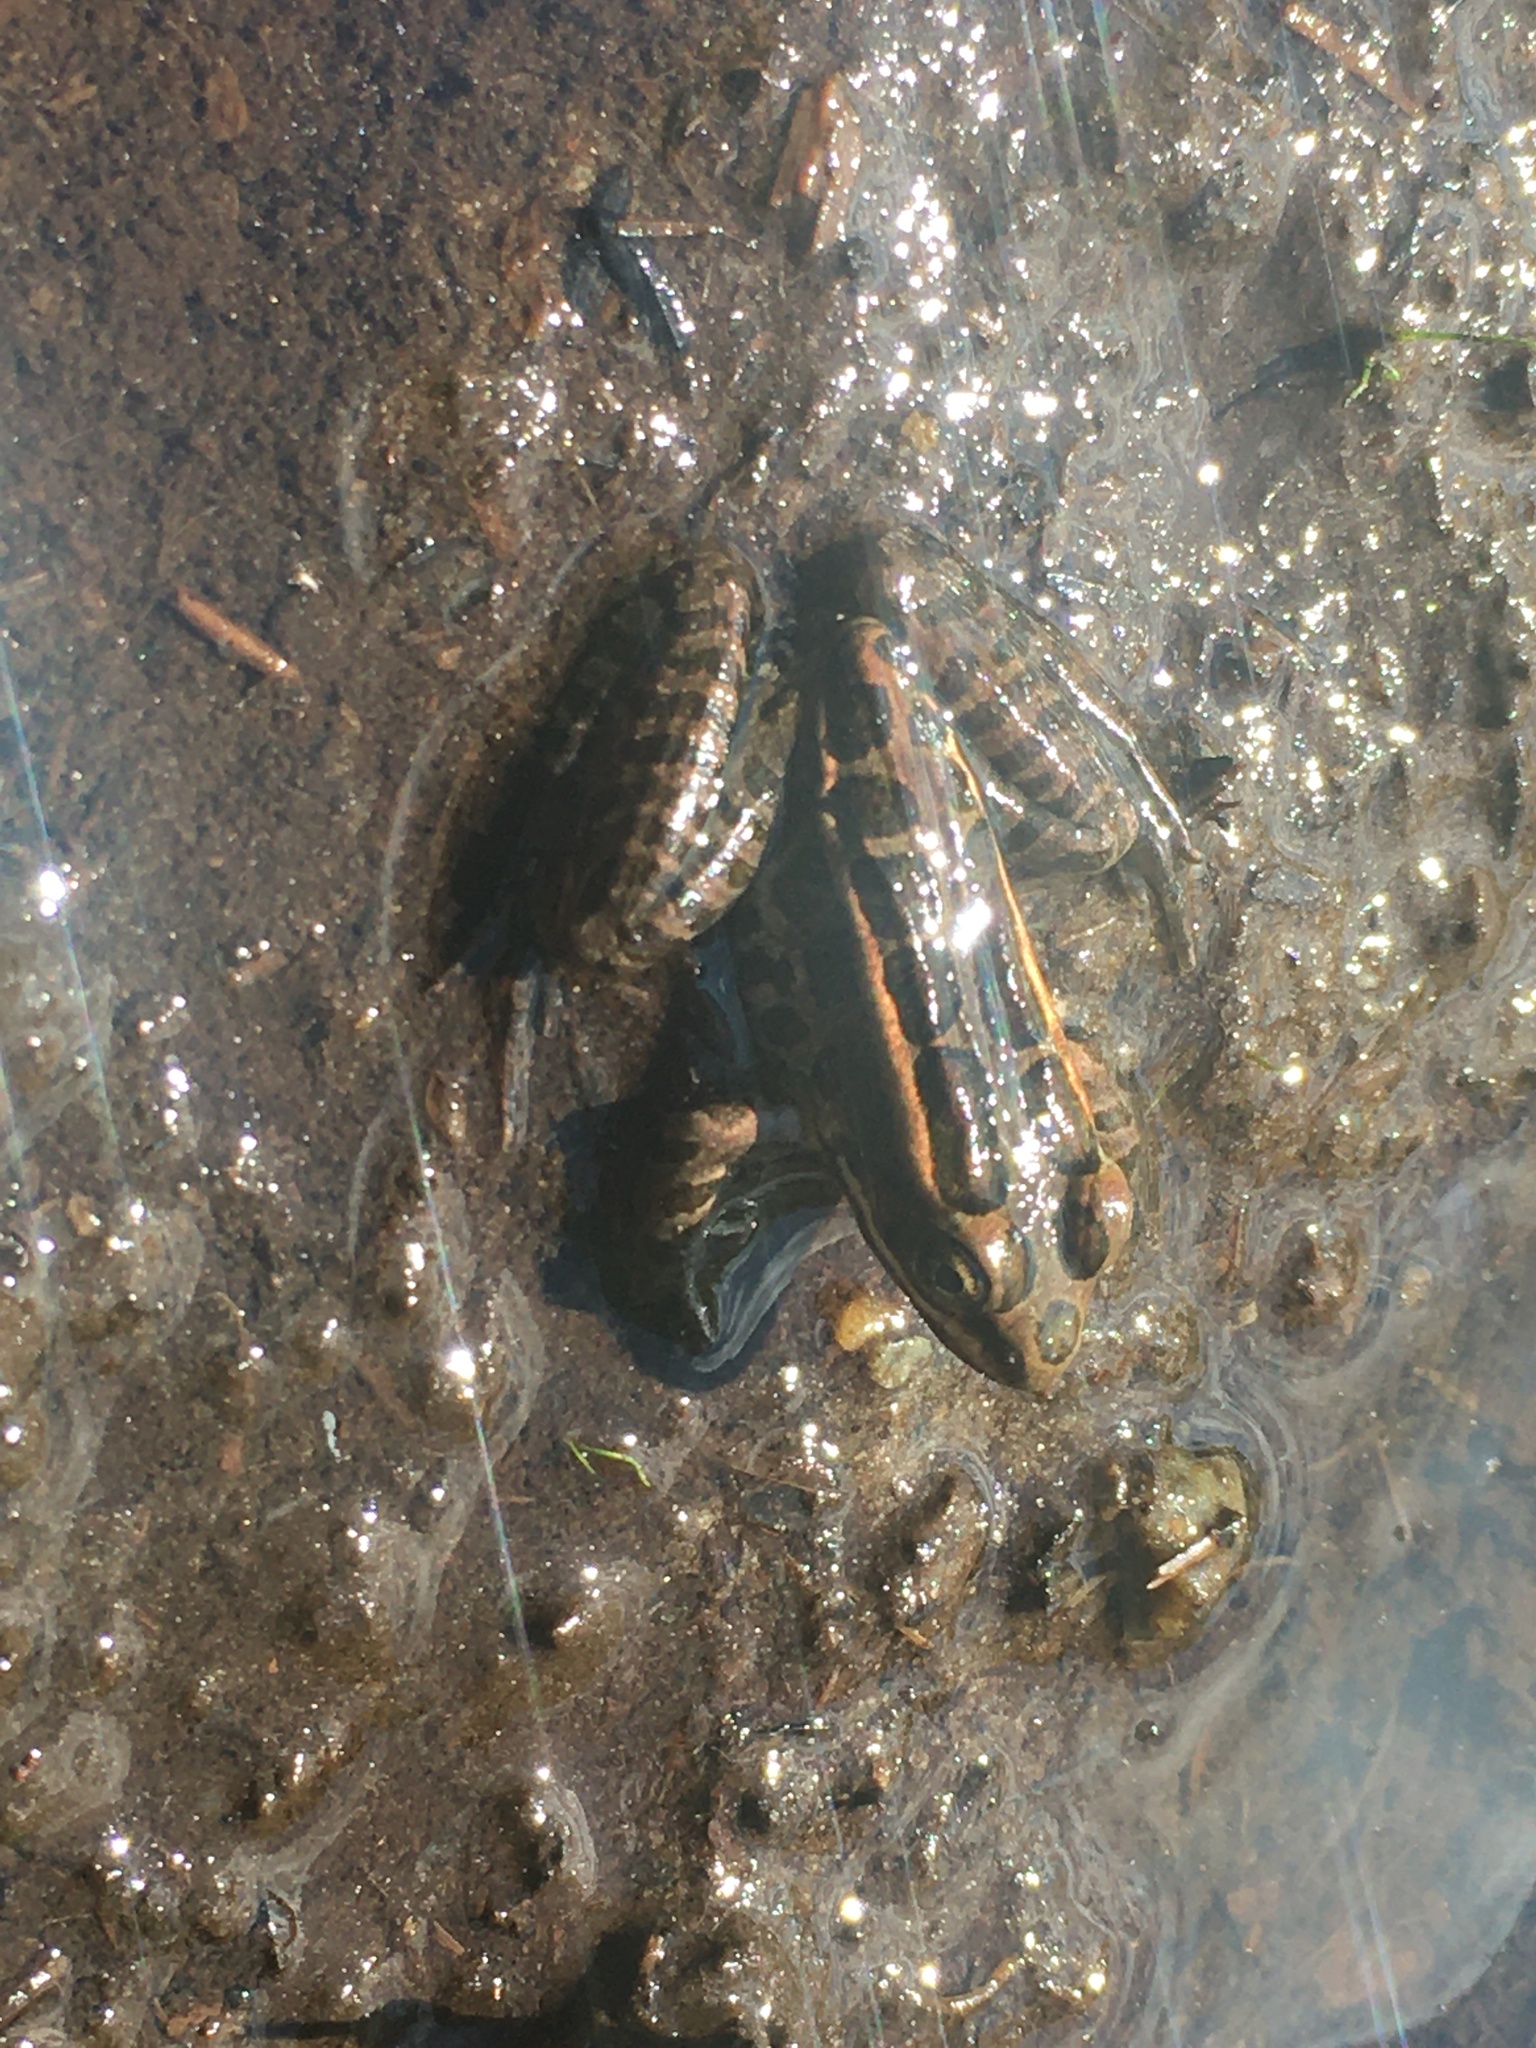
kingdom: Animalia
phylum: Chordata
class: Amphibia
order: Anura
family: Ranidae
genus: Lithobates
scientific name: Lithobates palustris
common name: Pickerel frog
